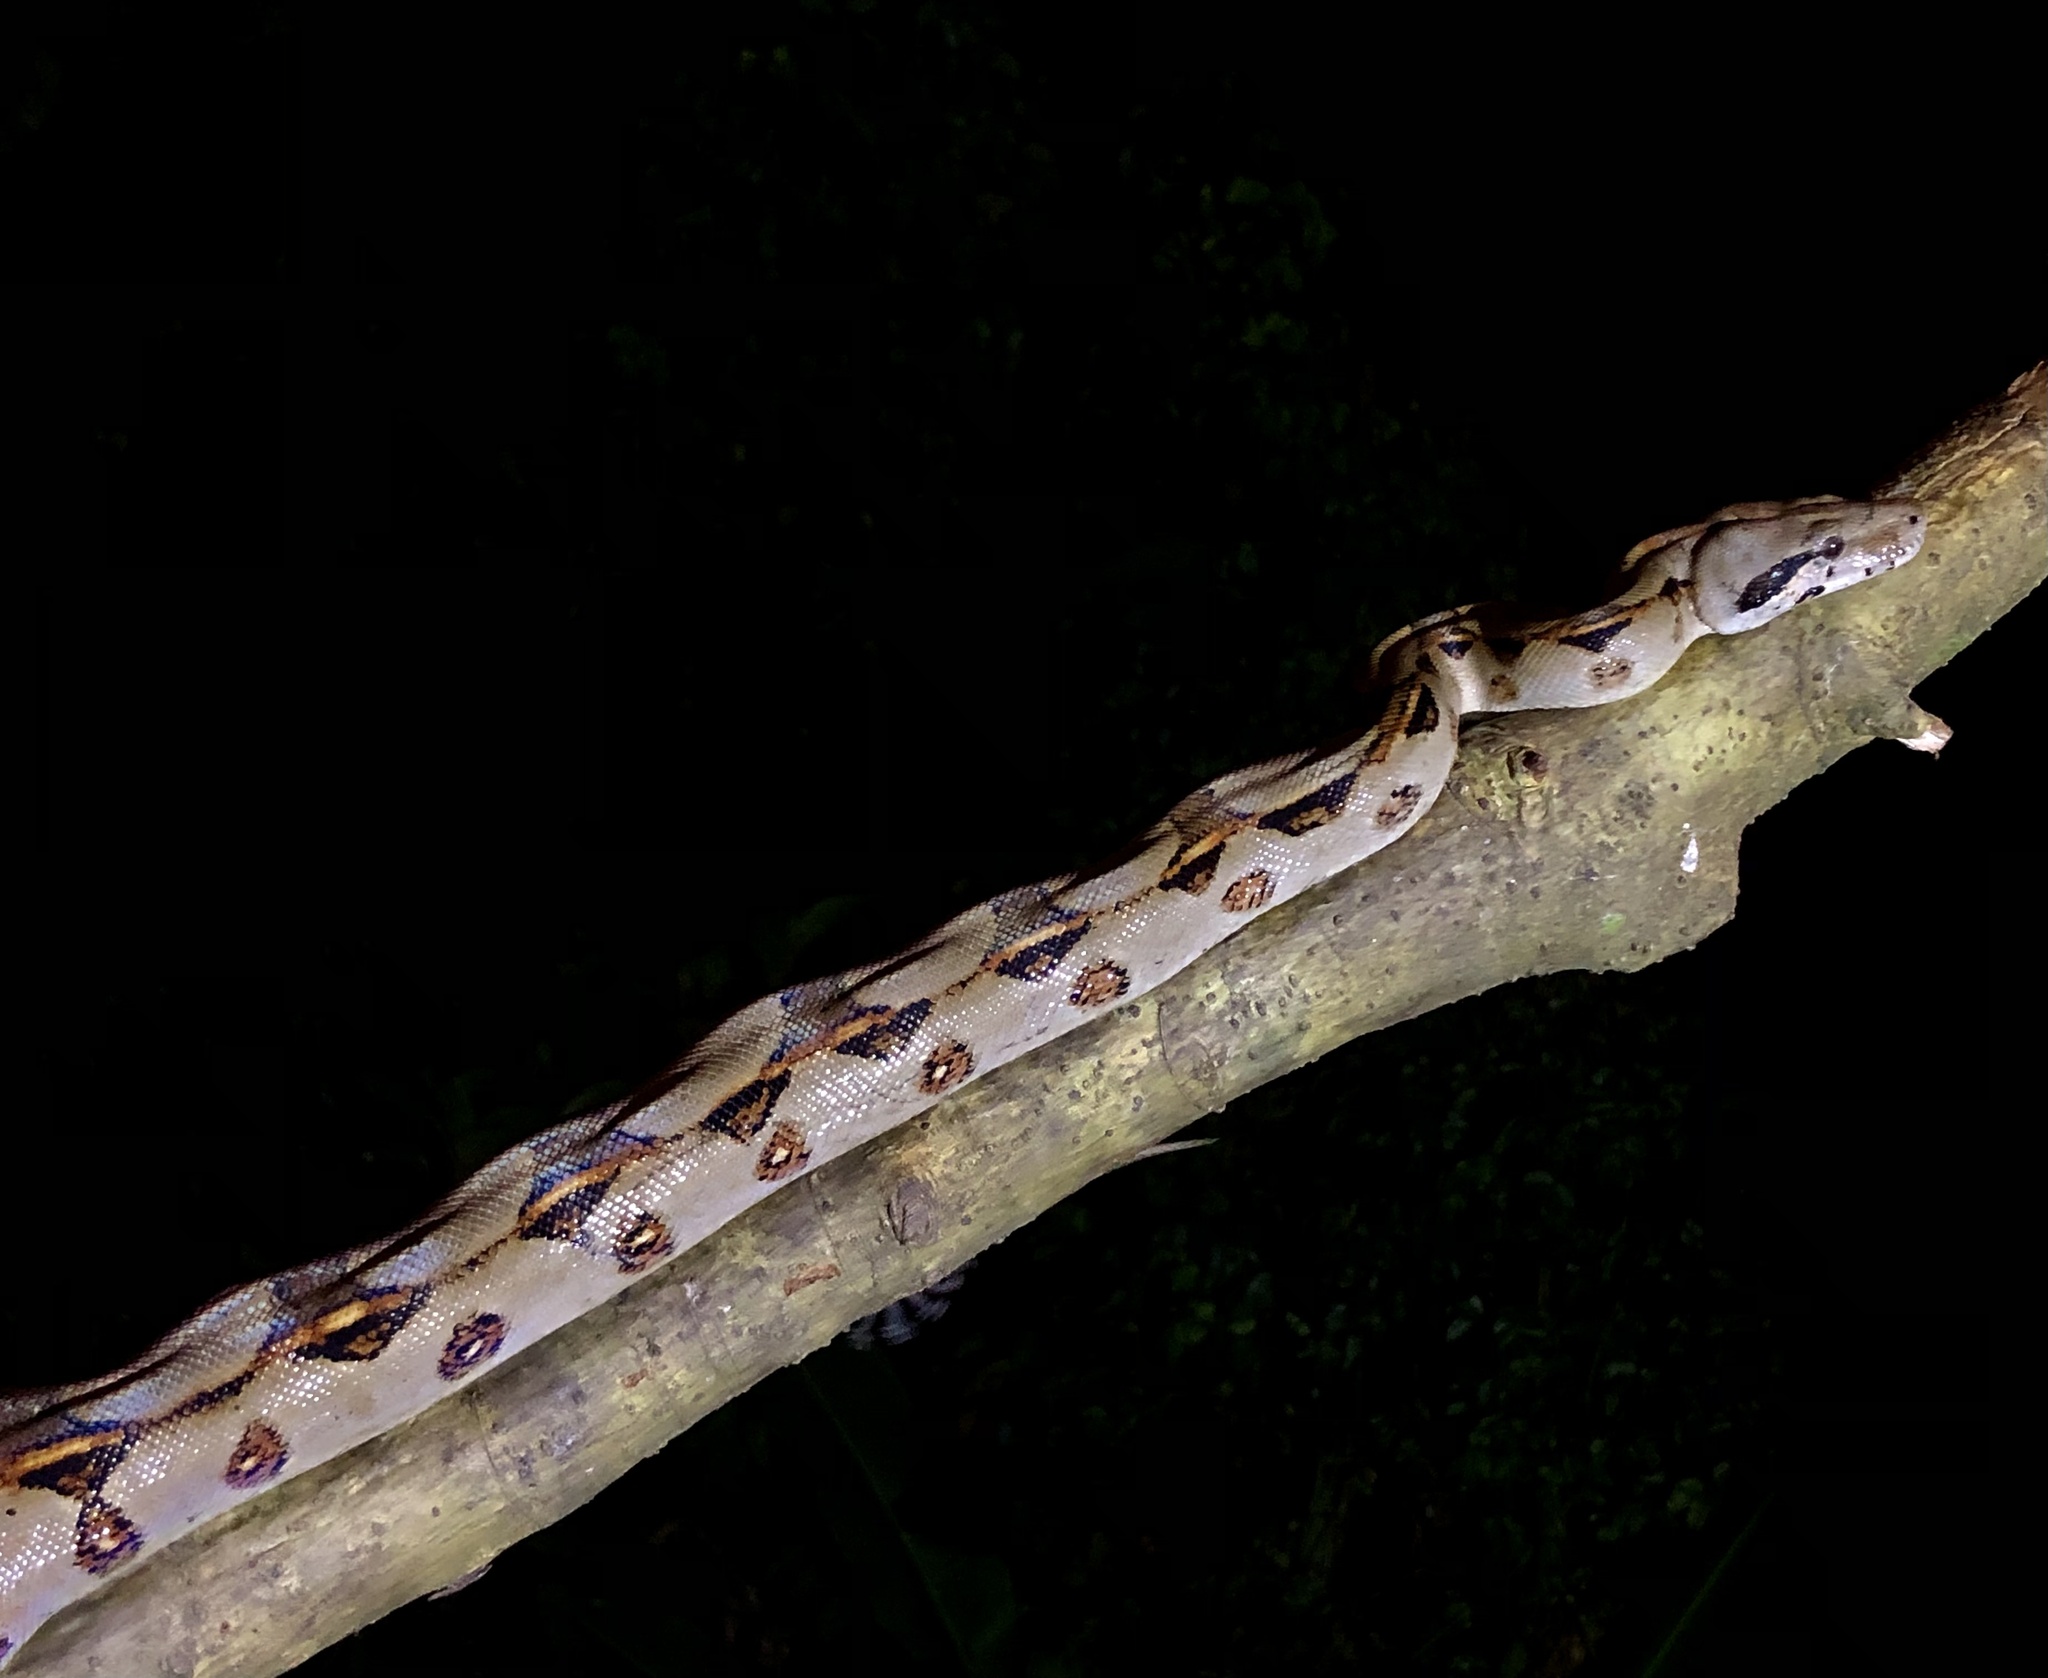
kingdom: Animalia
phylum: Chordata
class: Squamata
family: Boidae
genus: Boa
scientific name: Boa imperator
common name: Central american boa
